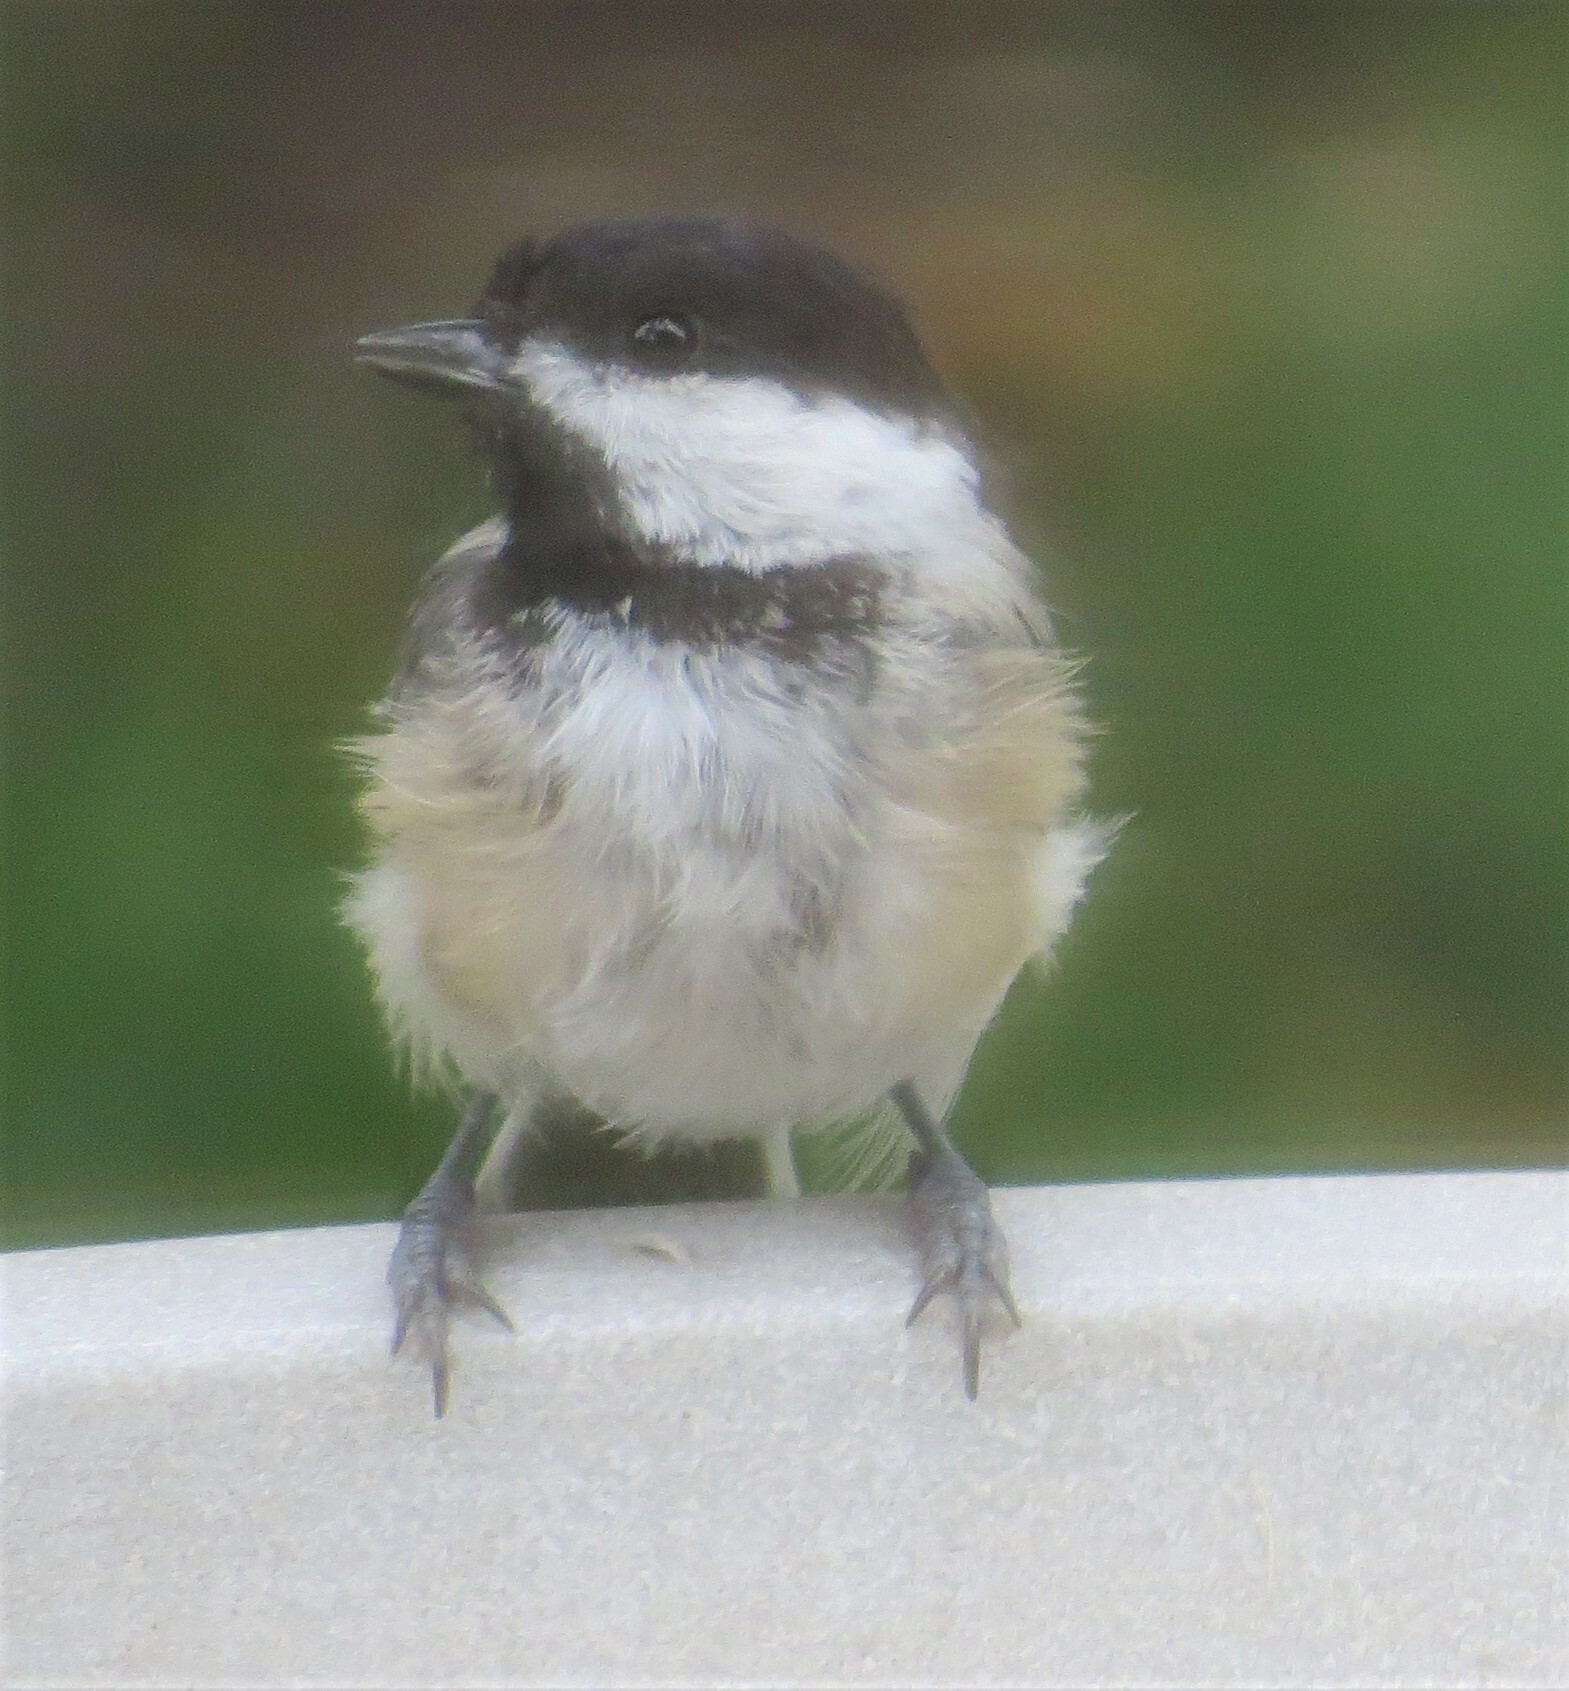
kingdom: Animalia
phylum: Chordata
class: Aves
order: Passeriformes
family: Paridae
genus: Poecile
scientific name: Poecile atricapillus
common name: Black-capped chickadee
